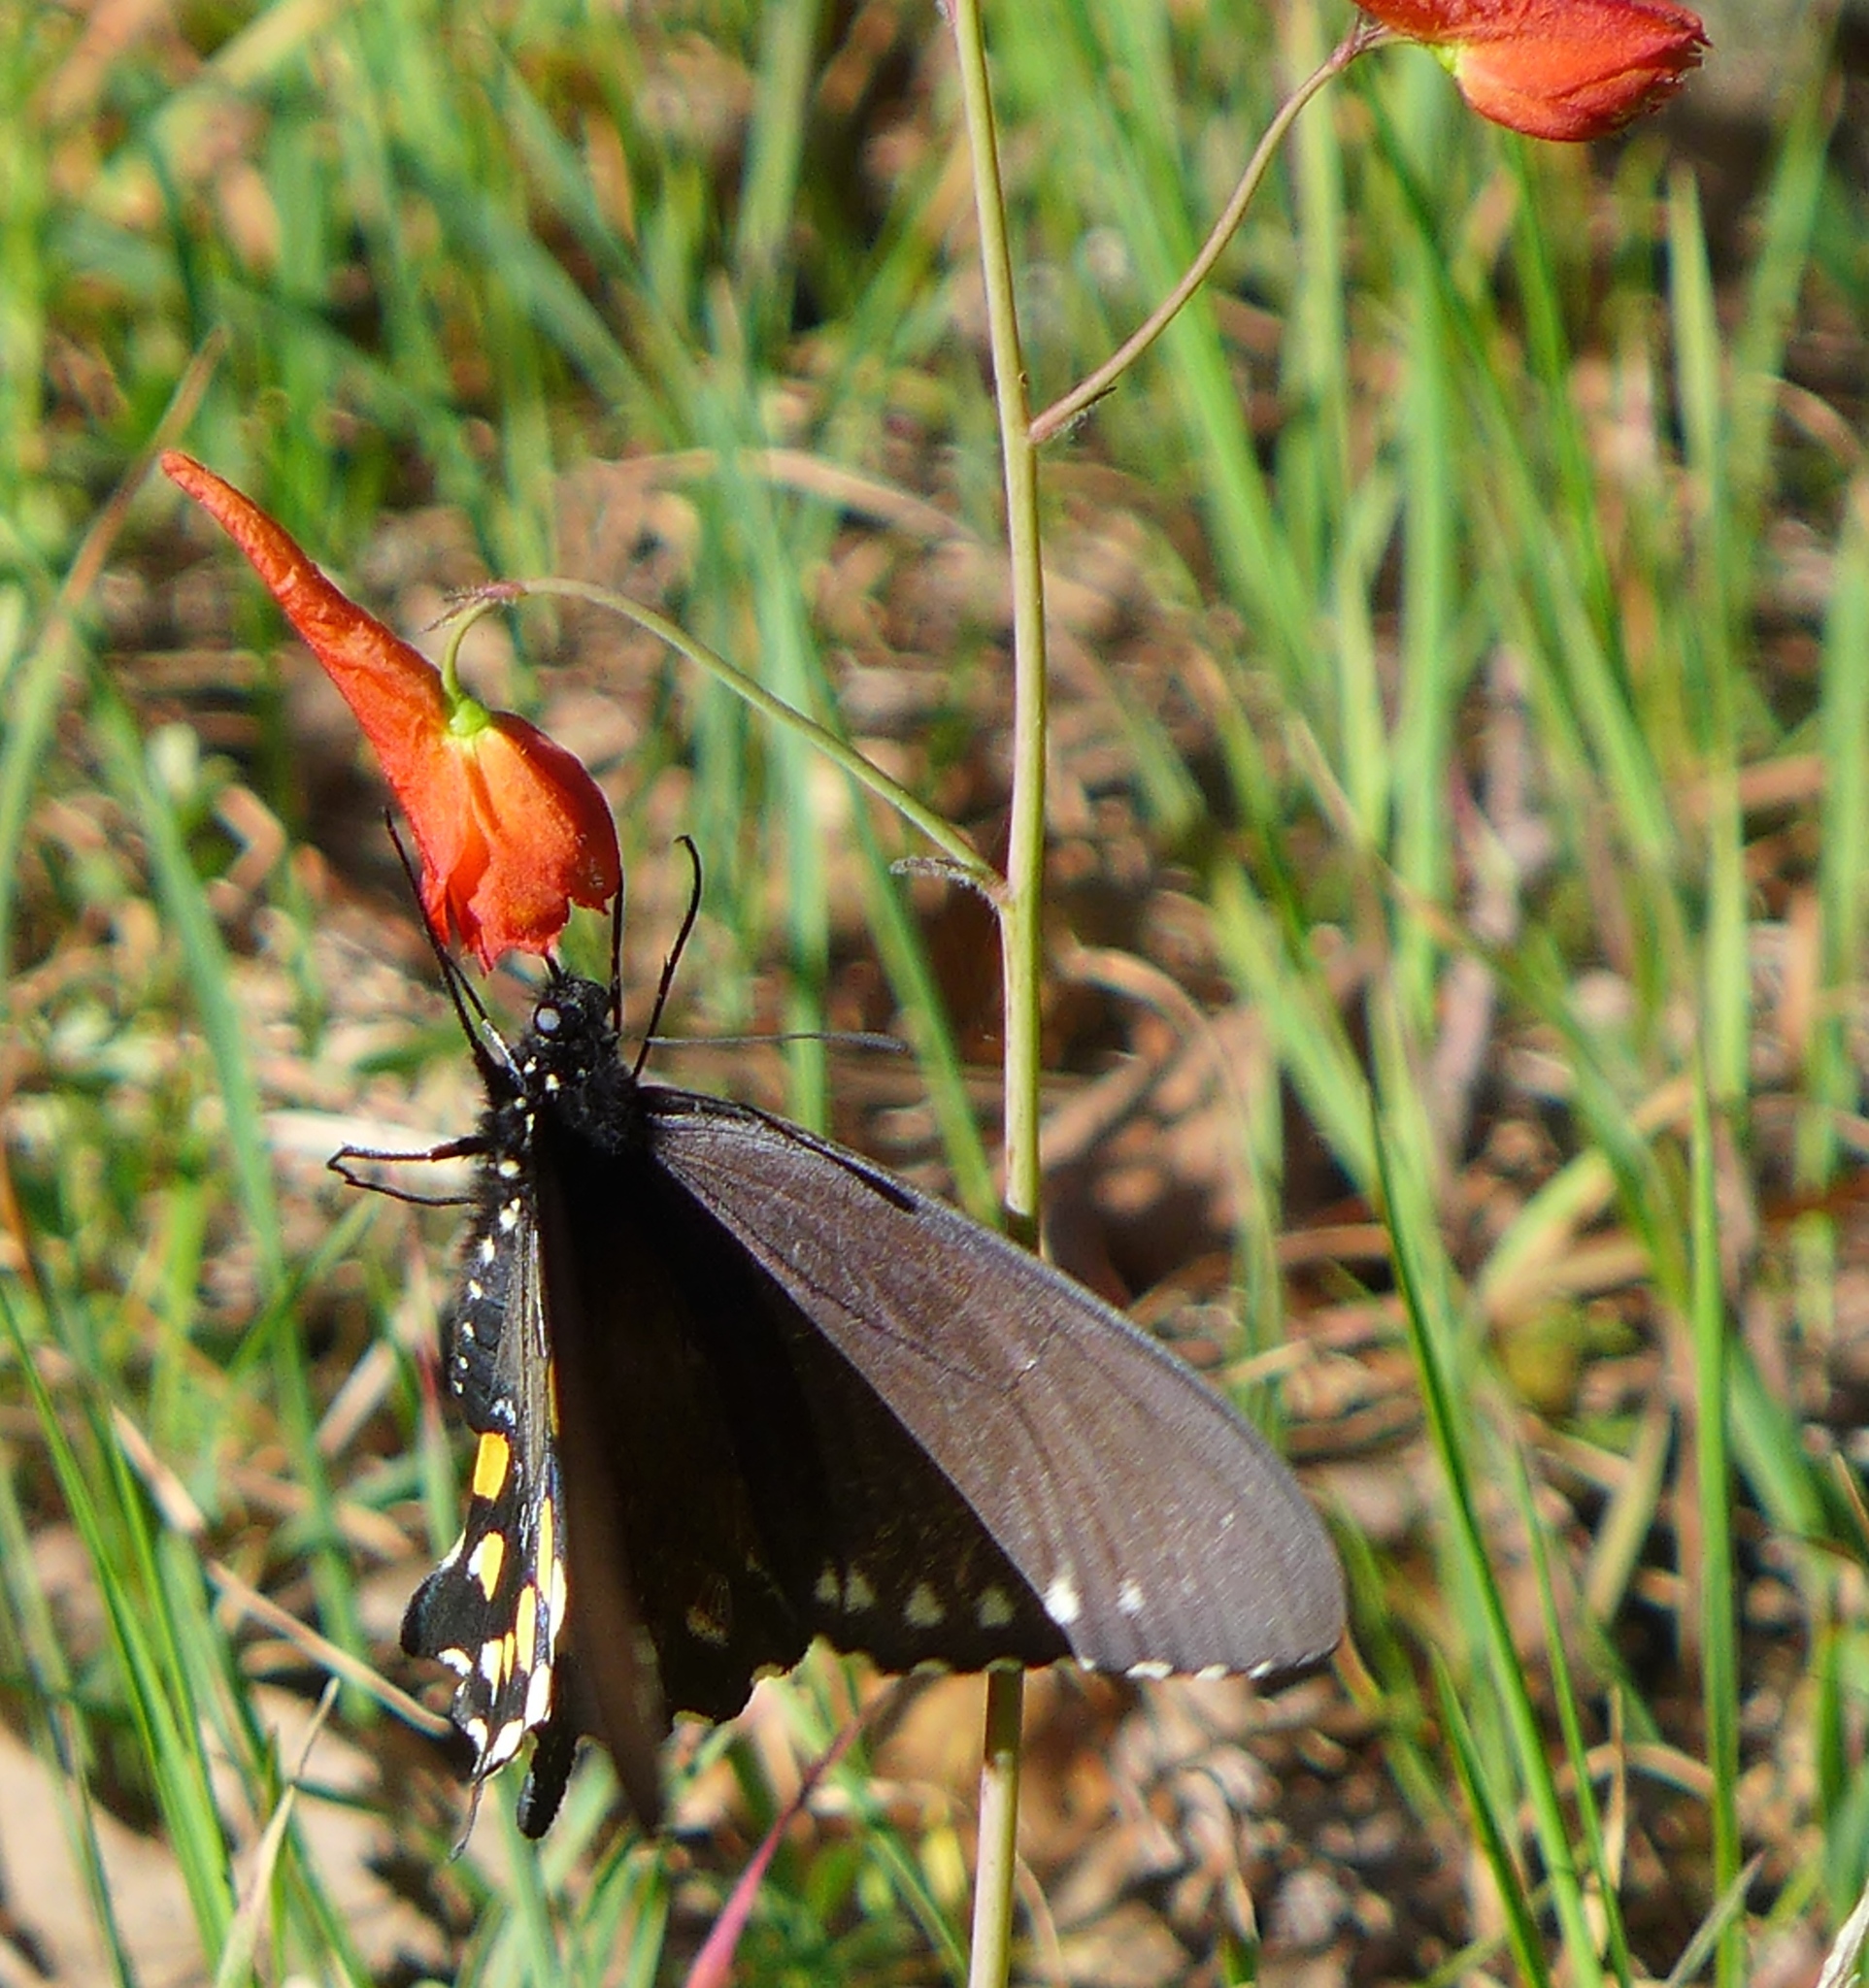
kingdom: Animalia
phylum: Arthropoda
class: Insecta
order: Lepidoptera
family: Papilionidae
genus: Battus
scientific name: Battus philenor
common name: Pipevine swallowtail
